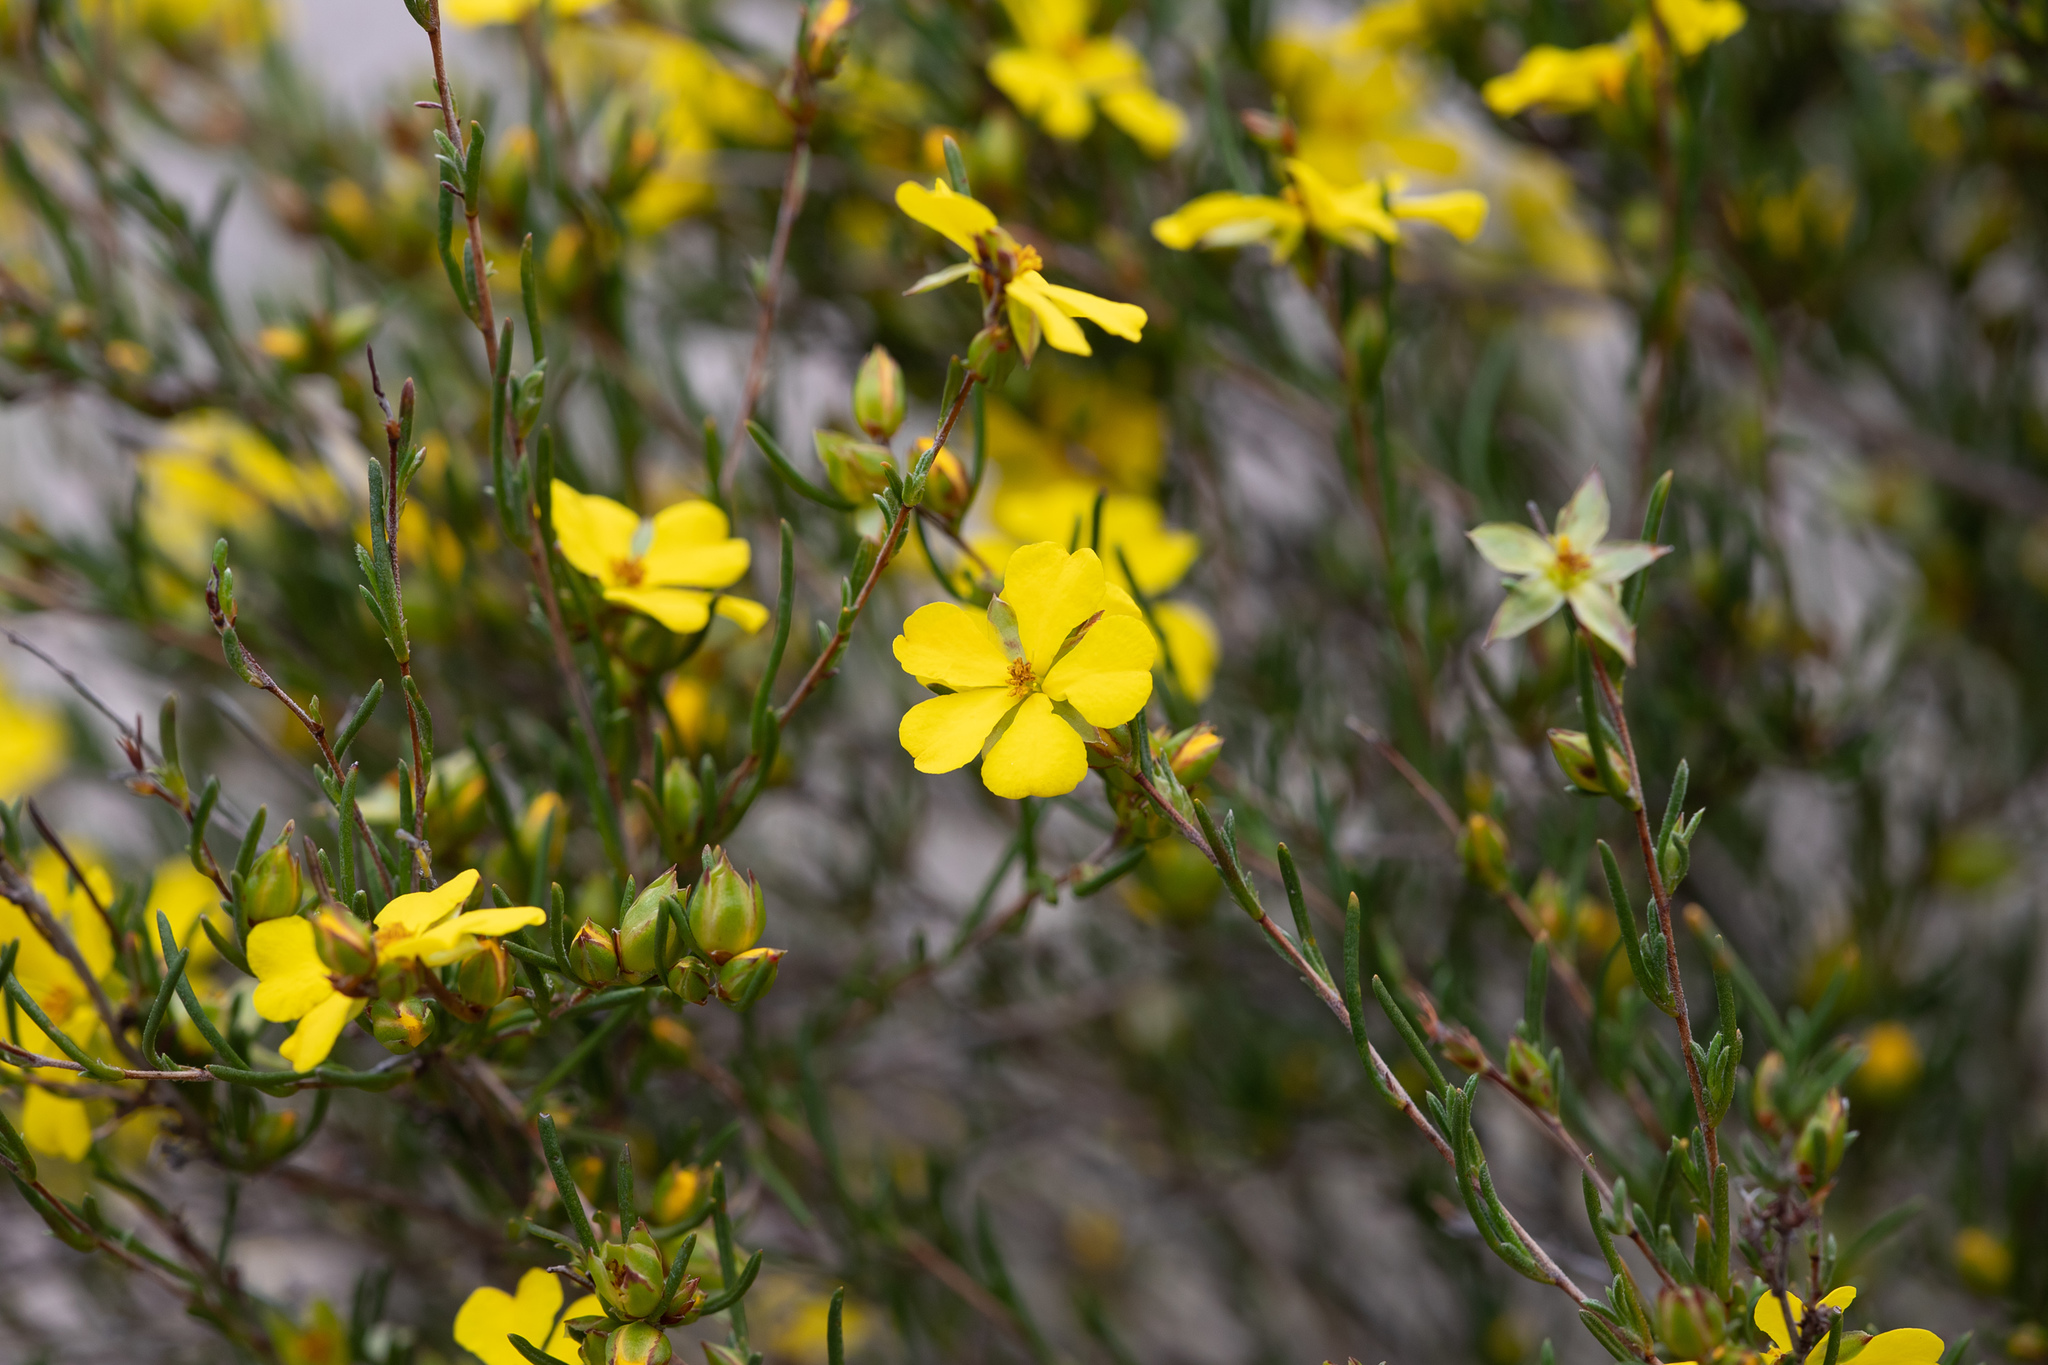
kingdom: Plantae
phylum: Tracheophyta
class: Magnoliopsida
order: Dilleniales
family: Dilleniaceae
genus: Hibbertia
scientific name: Hibbertia virgata
